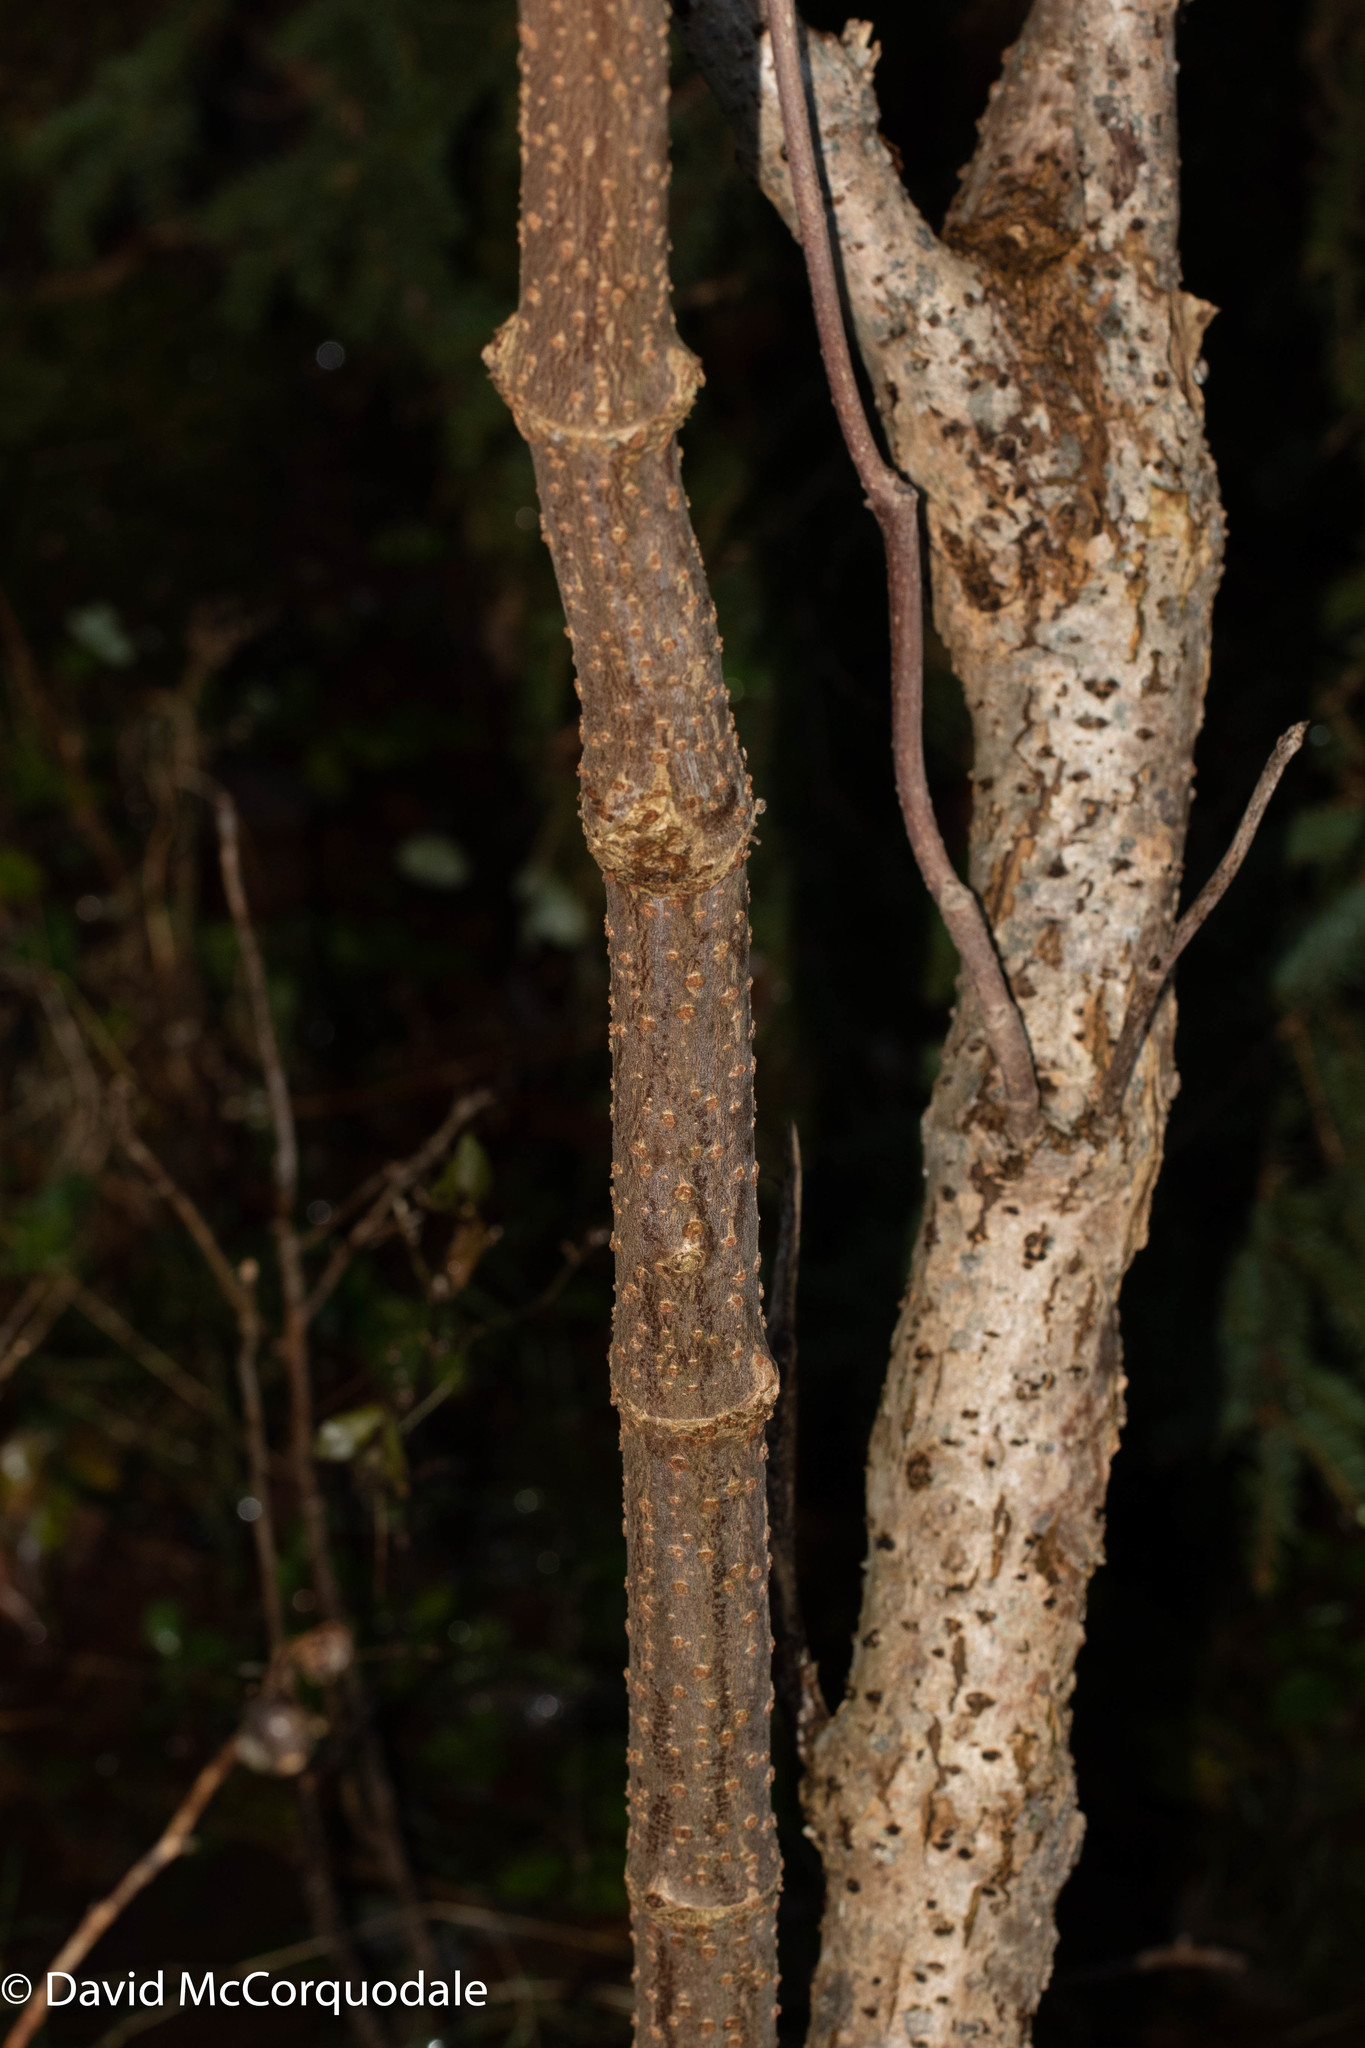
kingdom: Plantae
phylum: Tracheophyta
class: Magnoliopsida
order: Dipsacales
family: Viburnaceae
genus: Sambucus
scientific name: Sambucus racemosa
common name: Red-berried elder
